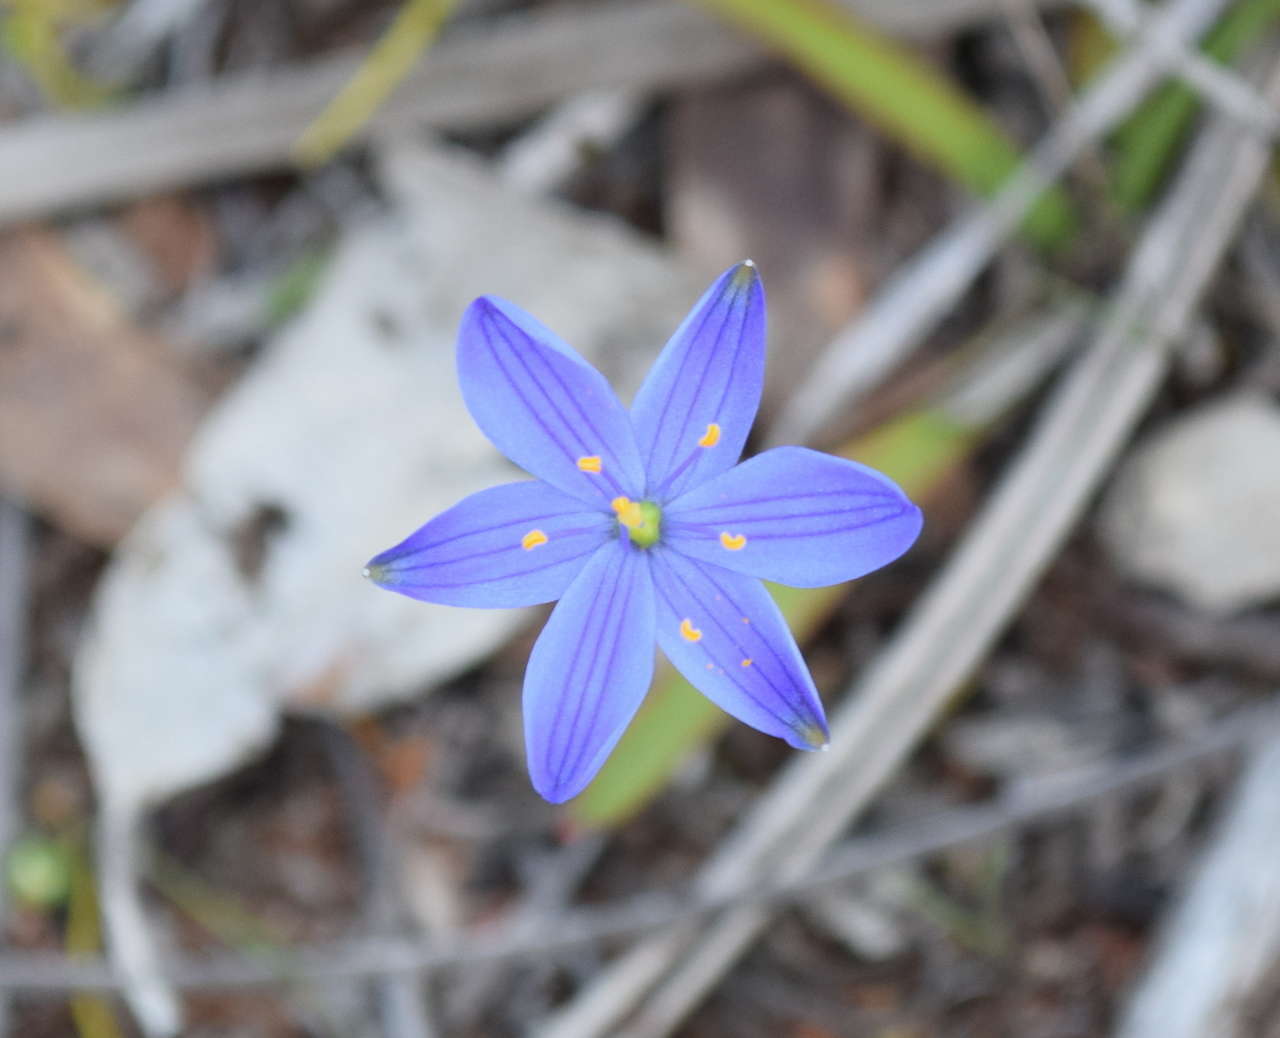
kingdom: Plantae
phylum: Tracheophyta
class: Liliopsida
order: Asparagales
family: Asphodelaceae
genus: Chamaescilla
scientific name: Chamaescilla corymbosa
